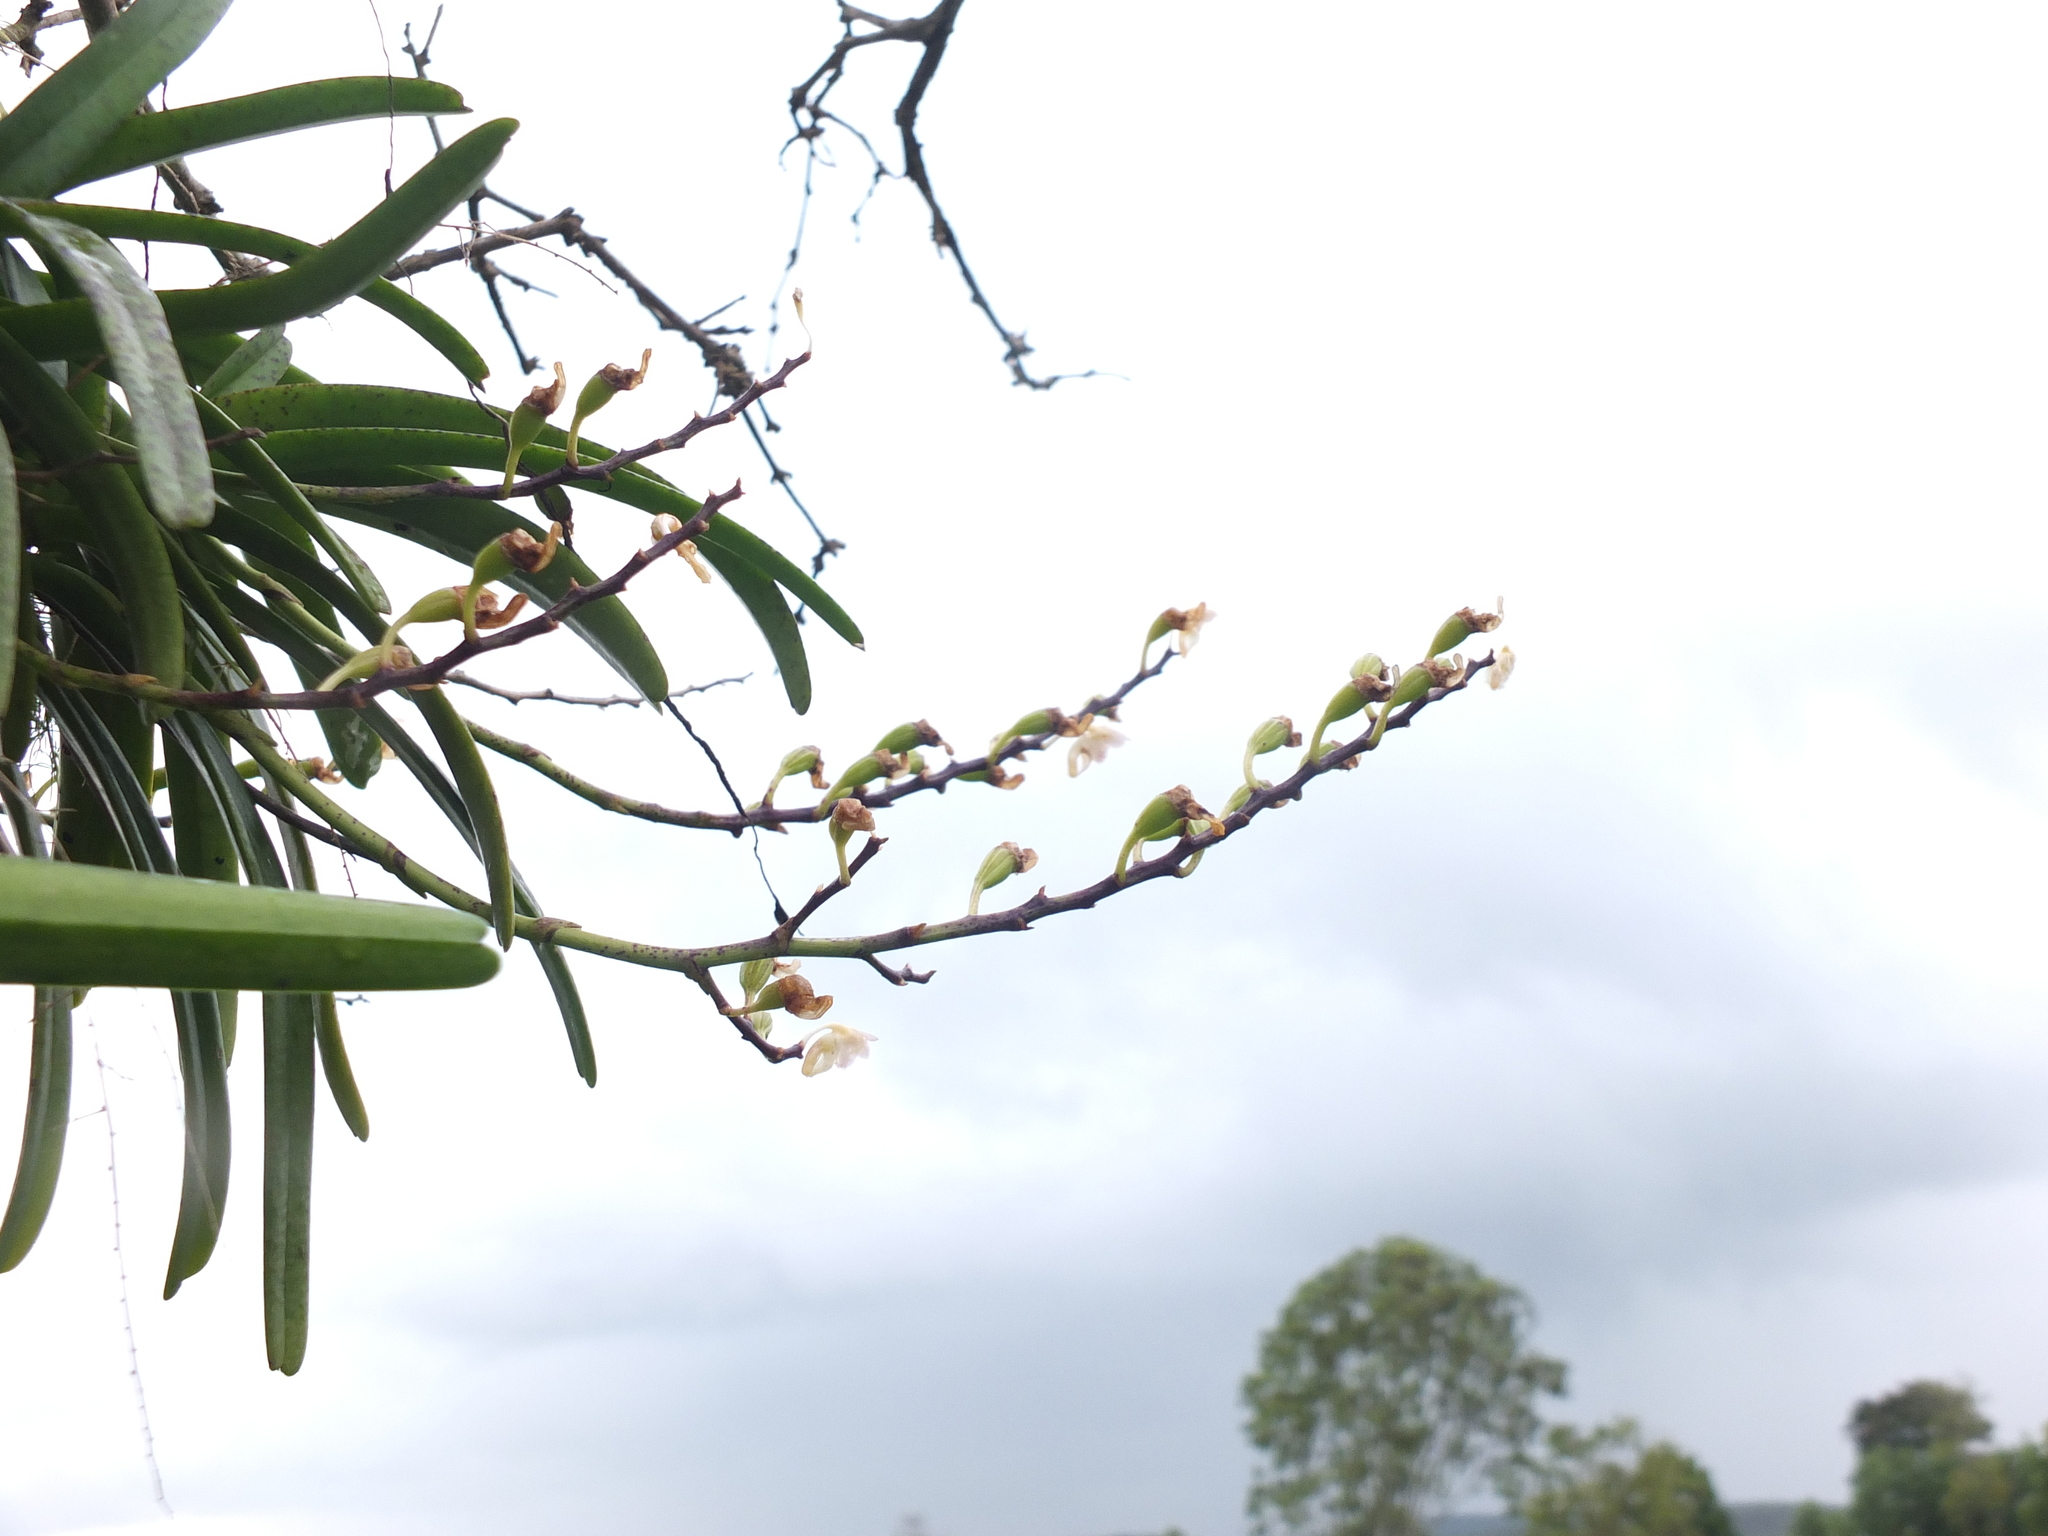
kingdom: Plantae
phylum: Tracheophyta
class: Liliopsida
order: Asparagales
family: Orchidaceae
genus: Aerides
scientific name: Aerides maculosa
